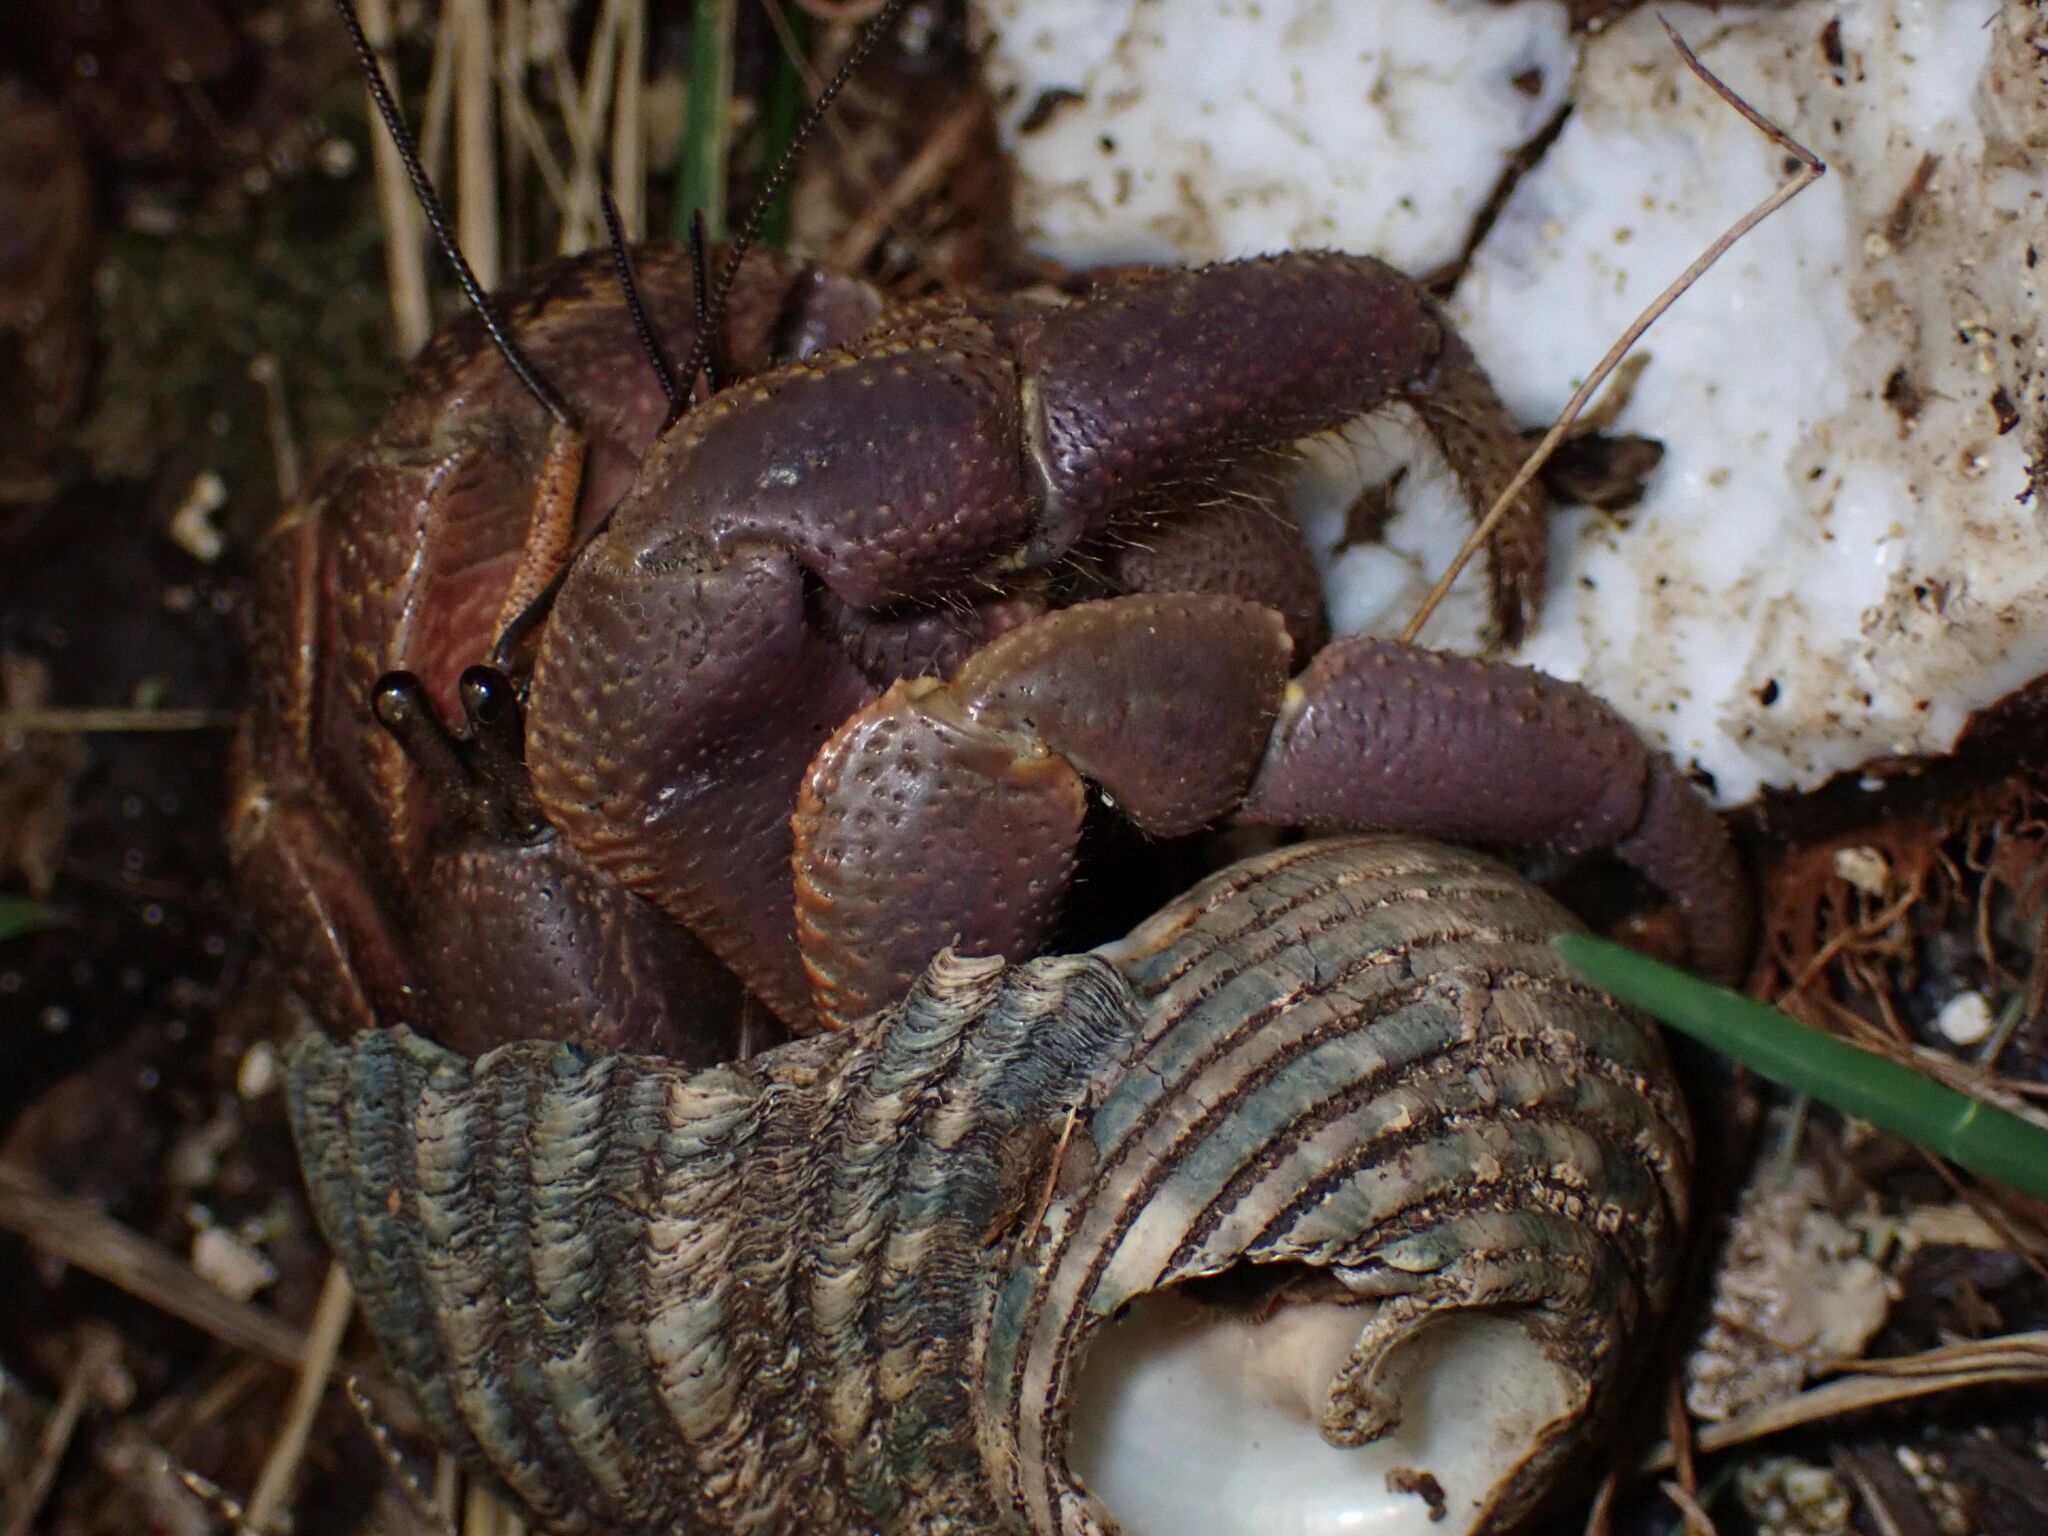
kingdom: Animalia
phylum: Arthropoda
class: Malacostraca
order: Decapoda
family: Coenobitidae
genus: Coenobita
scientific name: Coenobita brevimanus
